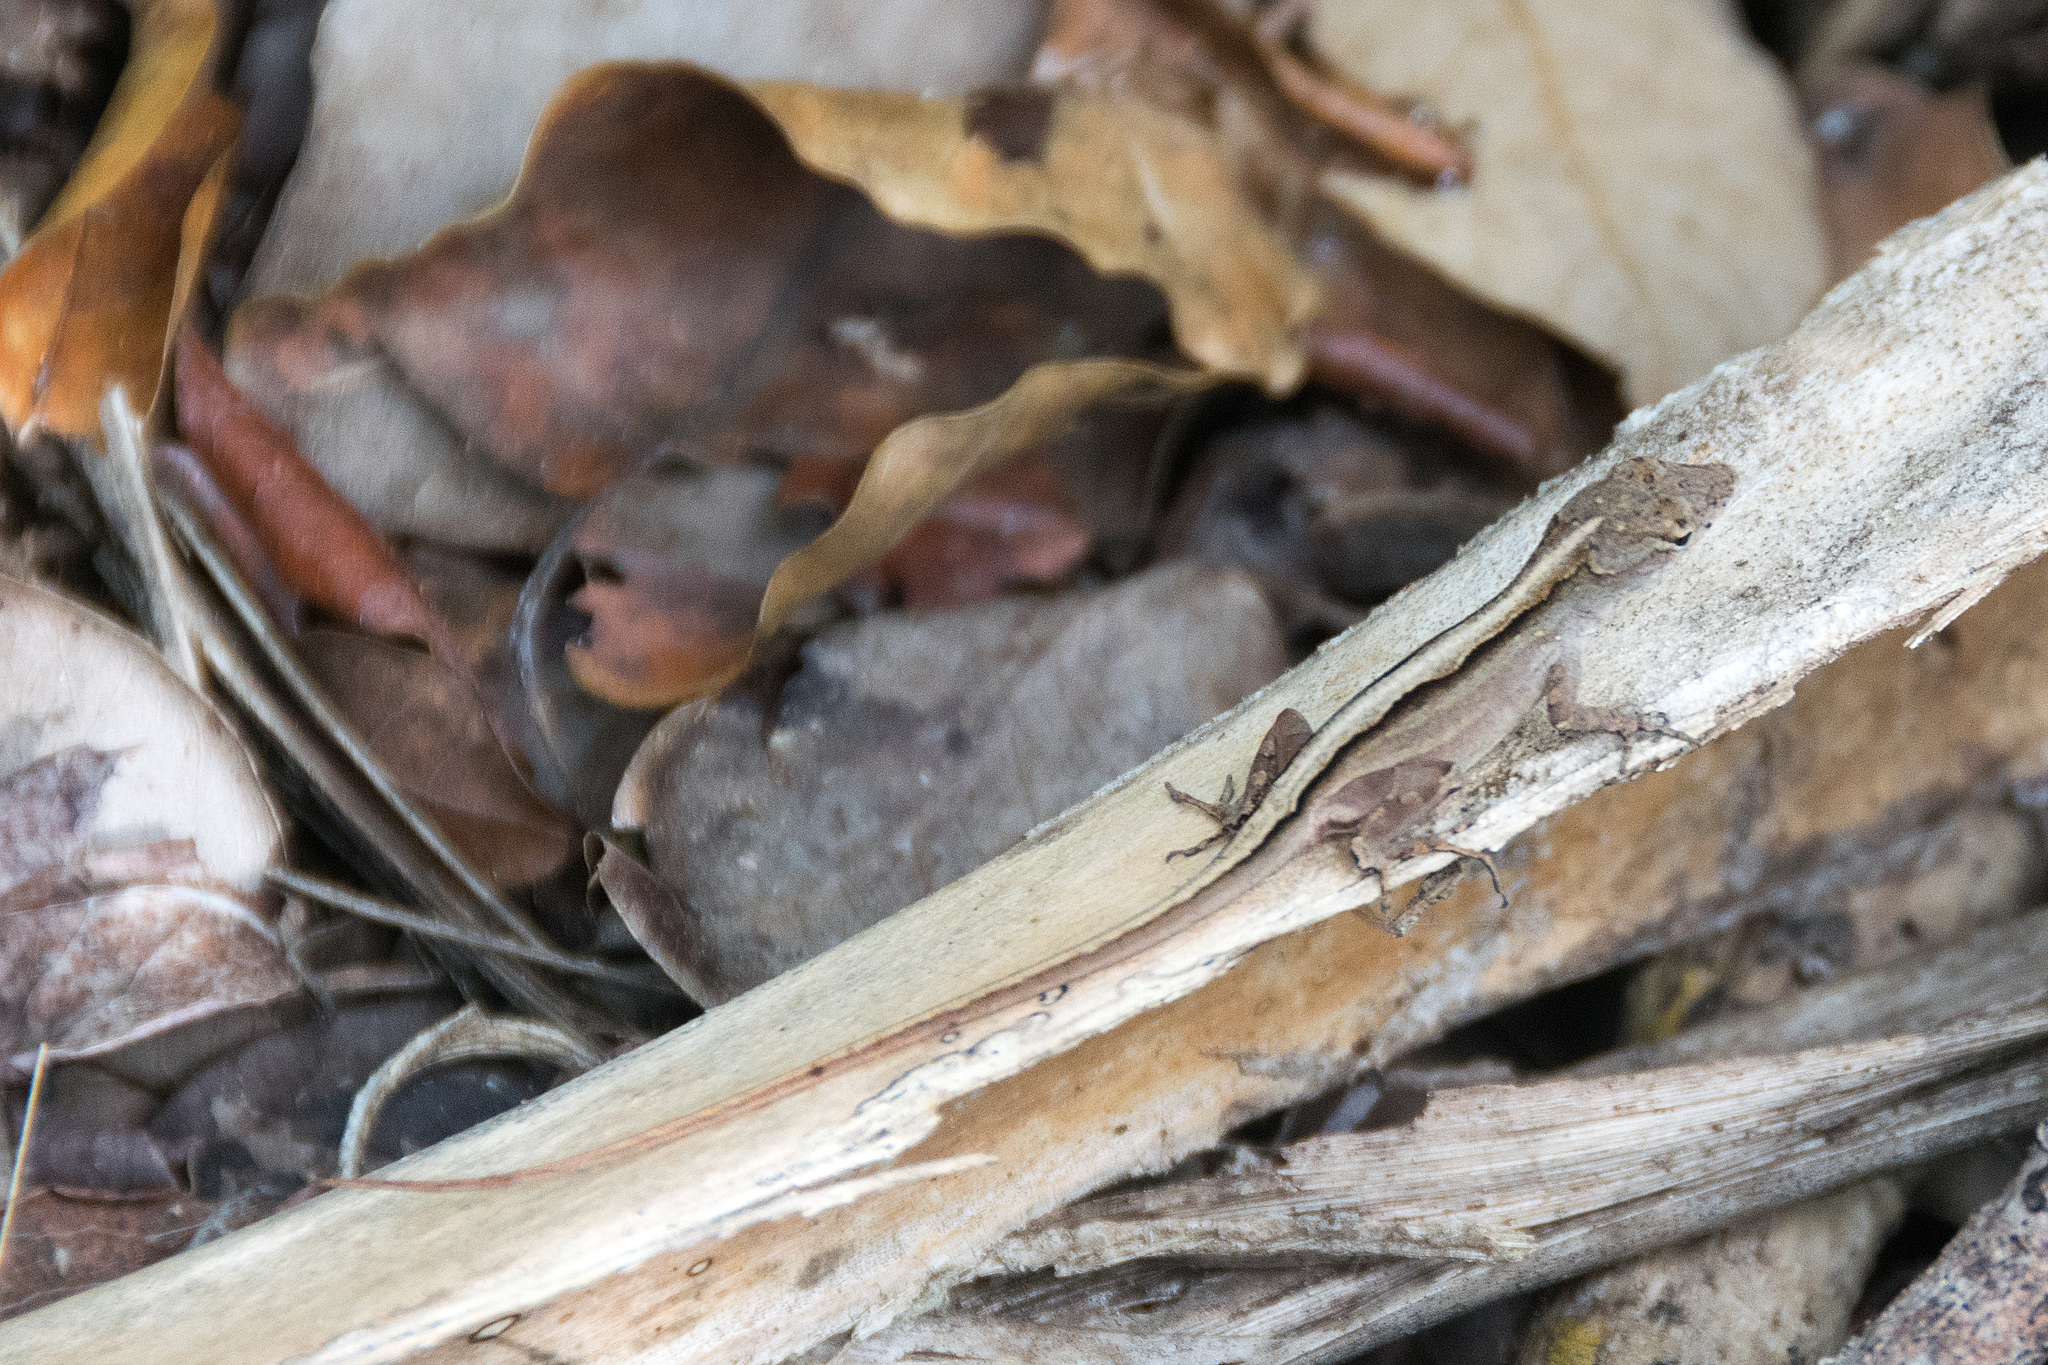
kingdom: Animalia
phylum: Chordata
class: Squamata
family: Dactyloidae
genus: Anolis
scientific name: Anolis sagrei
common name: Brown anole
